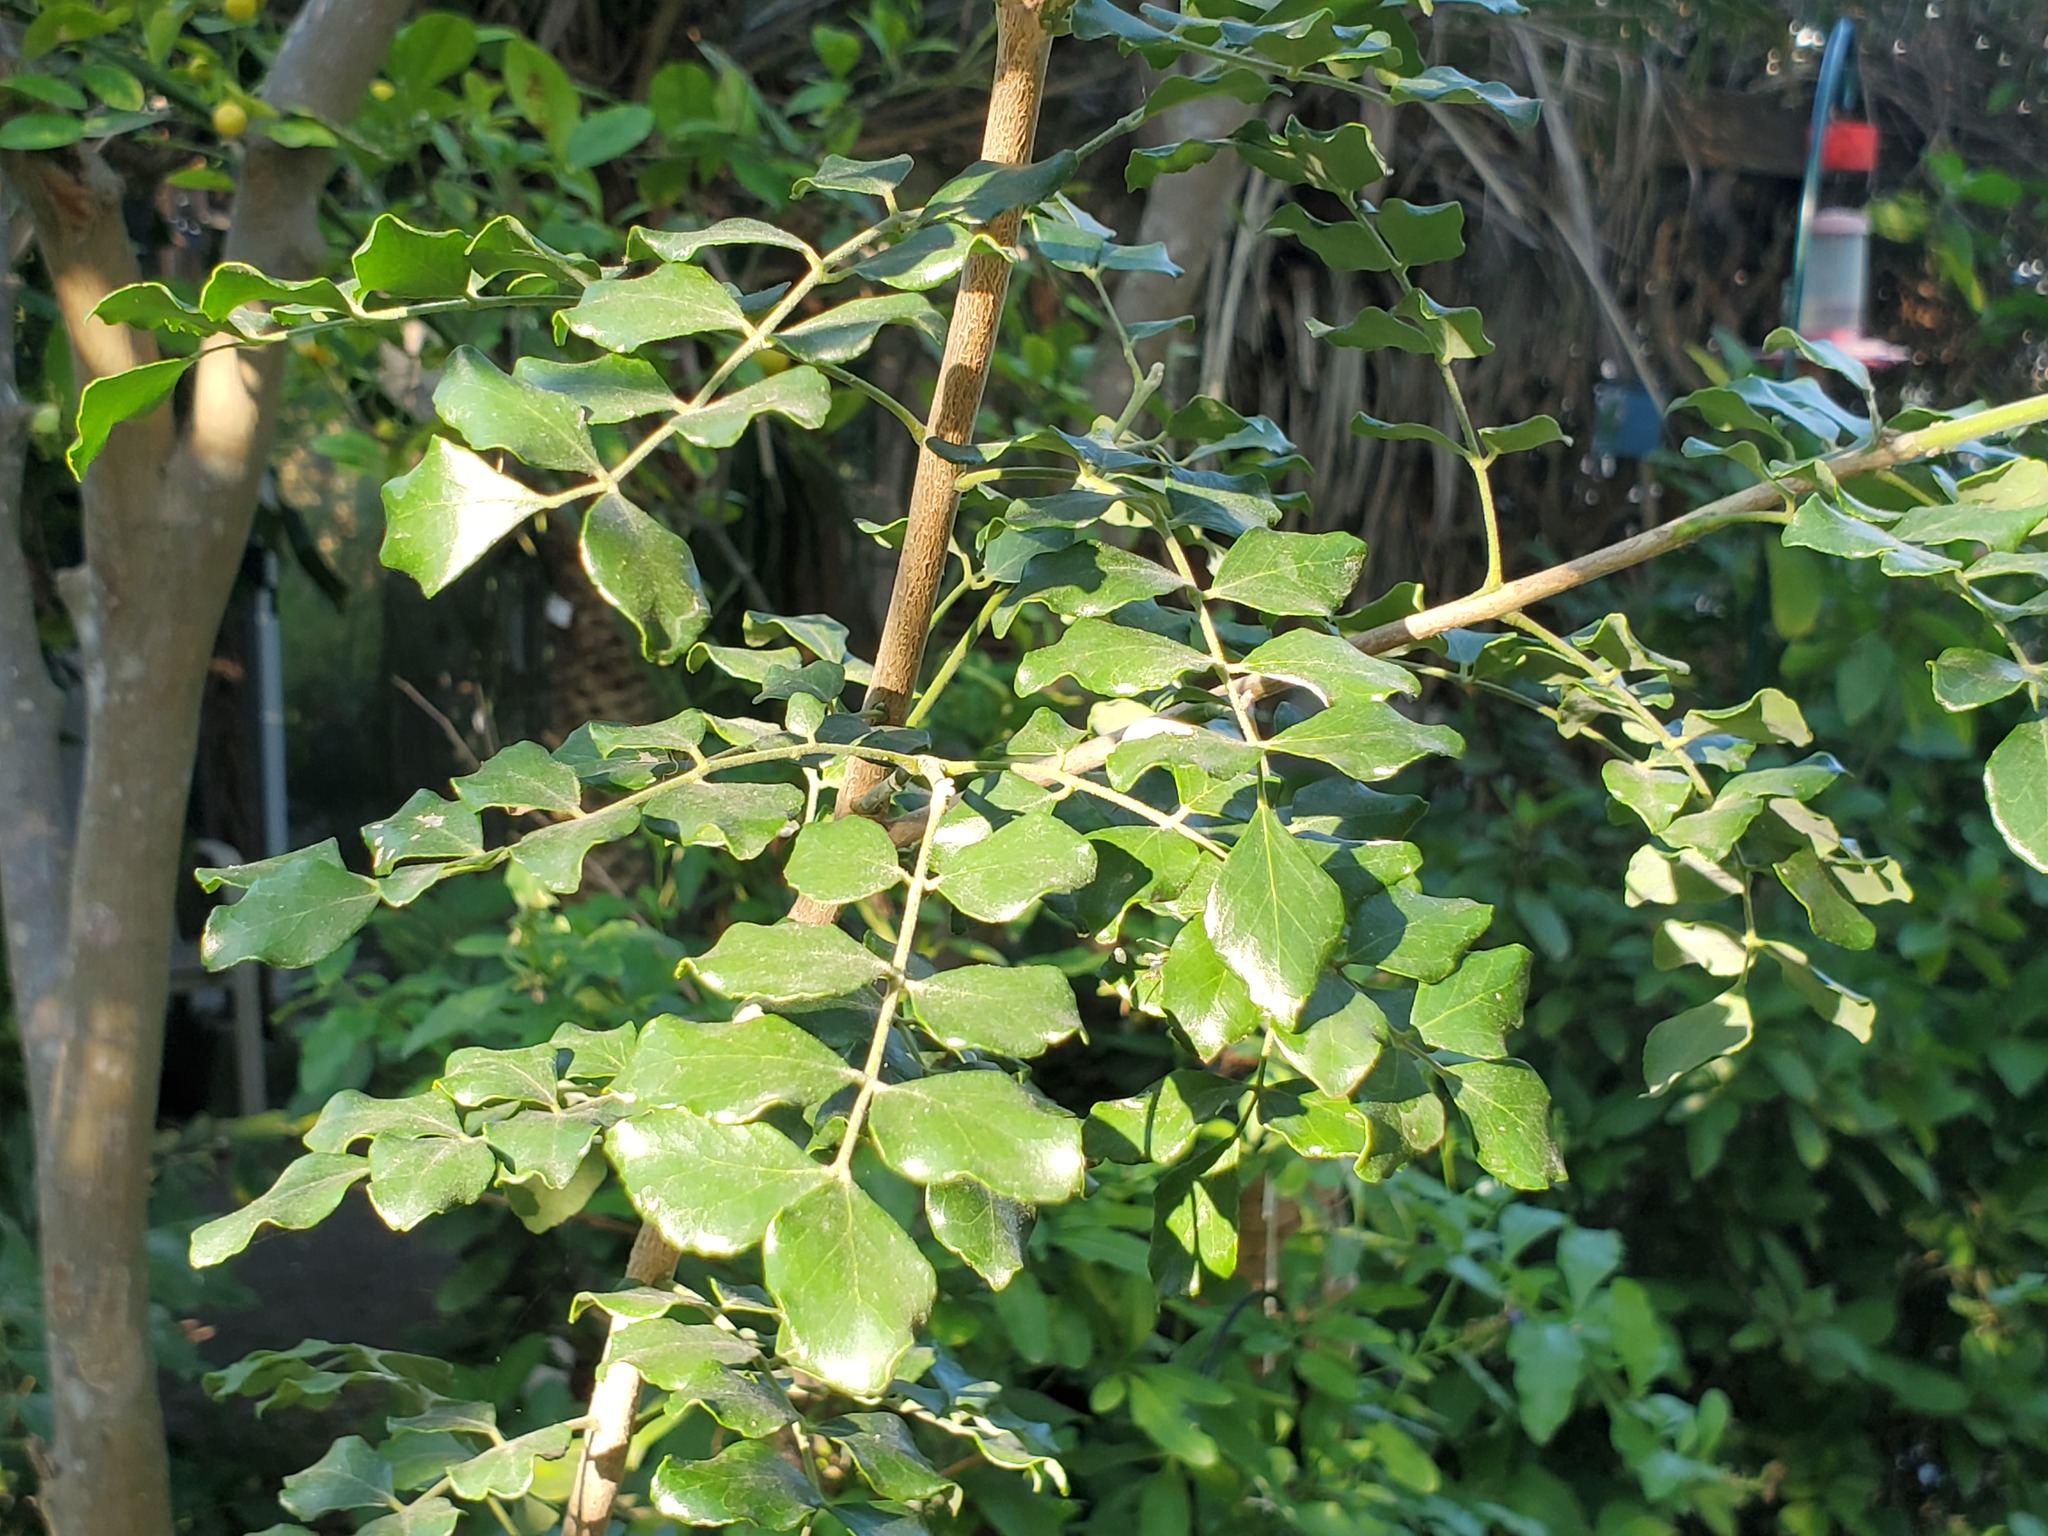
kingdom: Plantae
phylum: Tracheophyta
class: Magnoliopsida
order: Sapindales
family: Rutaceae
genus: Amyris
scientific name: Amyris madrensis
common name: Mountain torchwood
